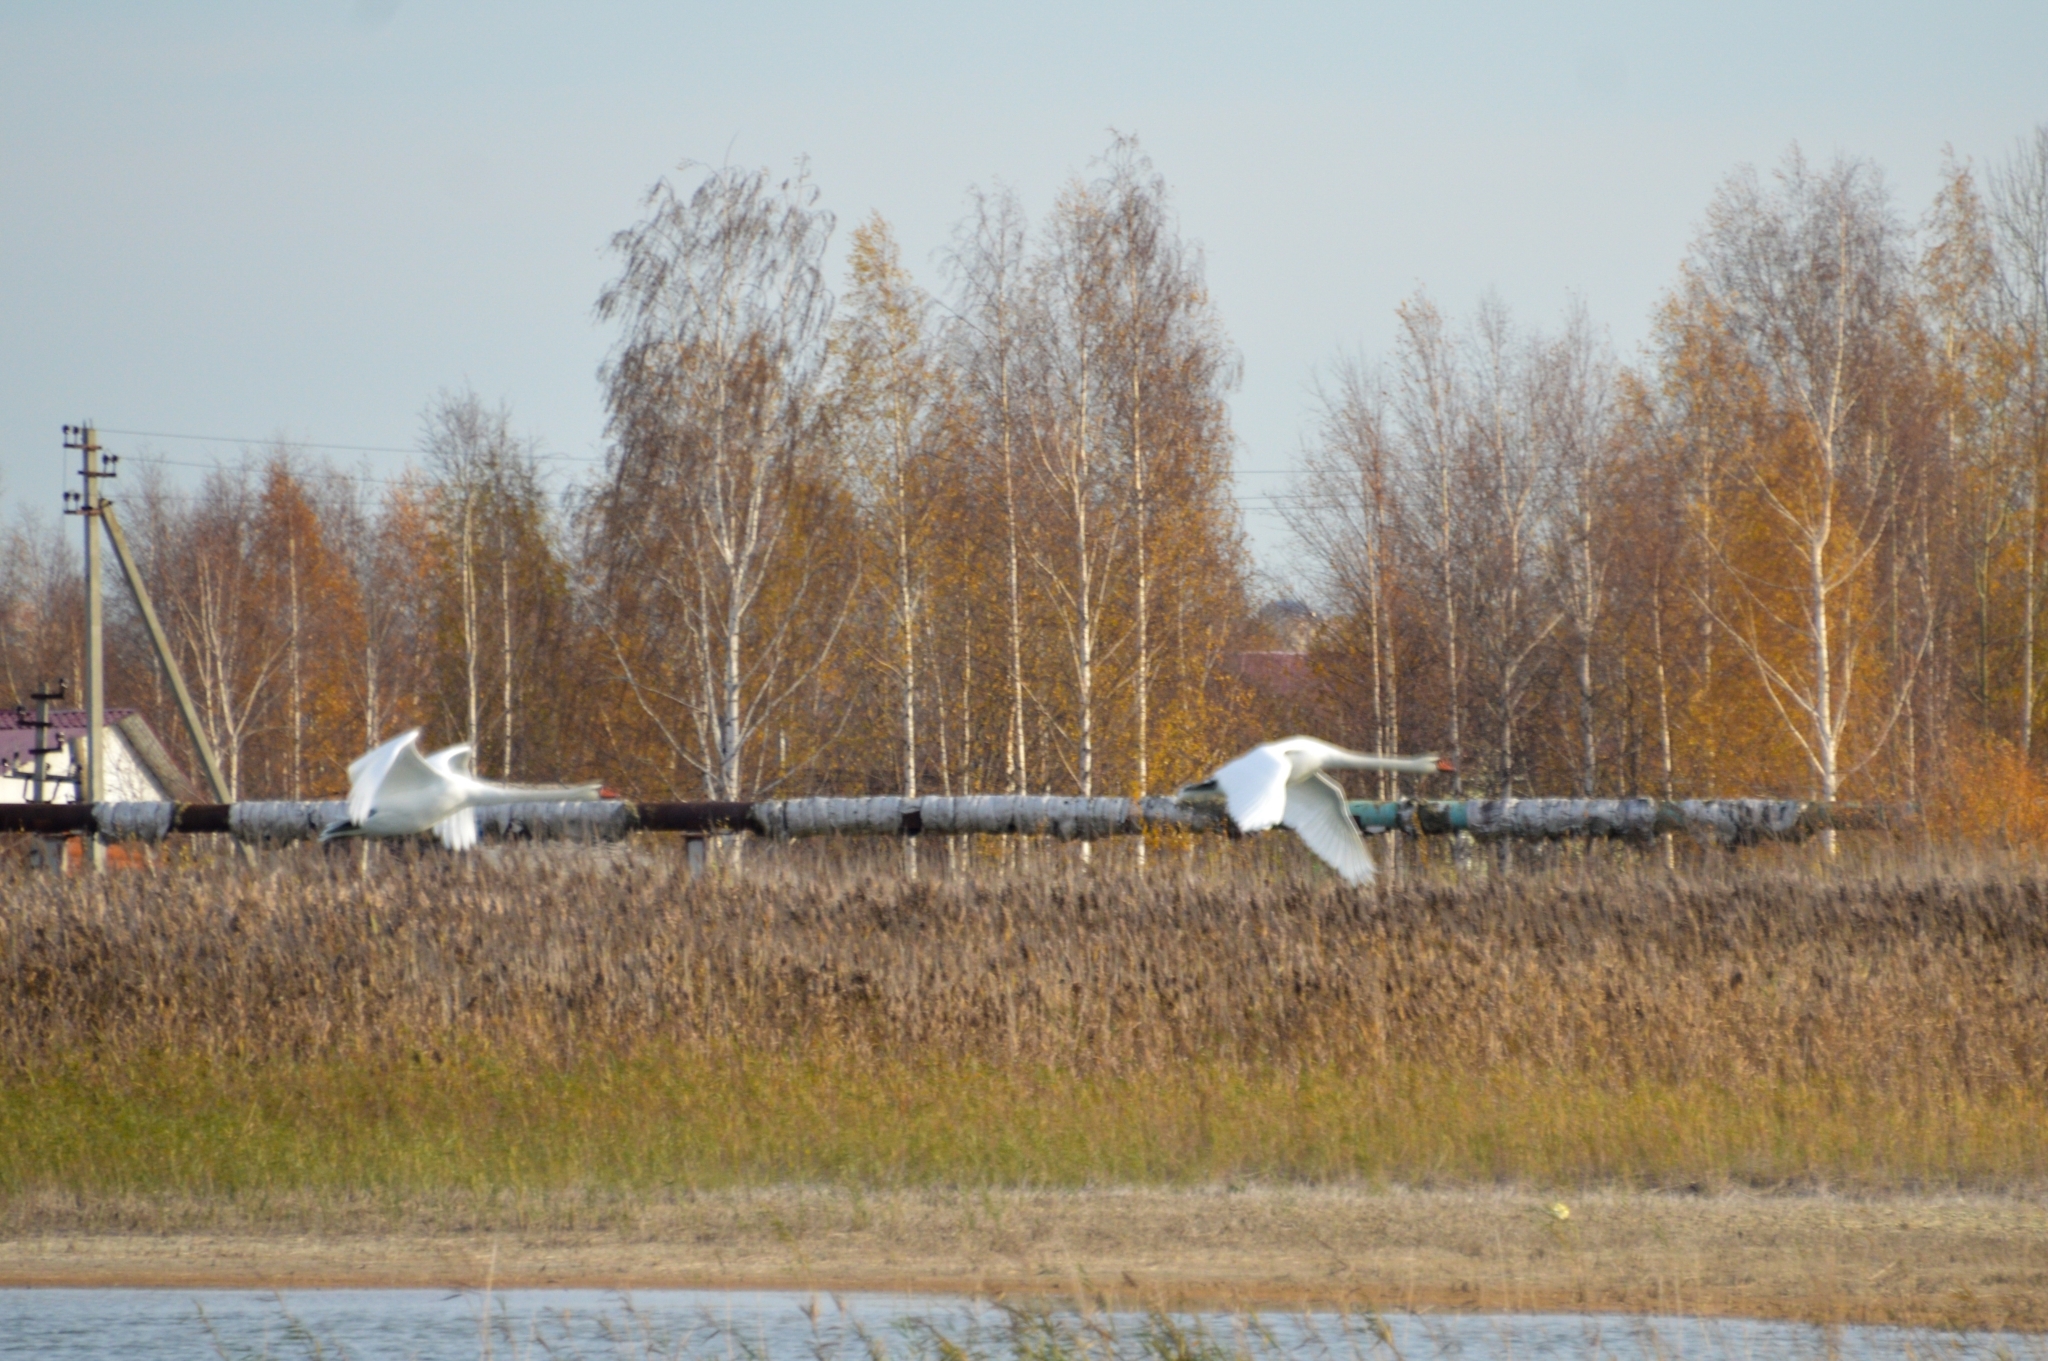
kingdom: Animalia
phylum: Chordata
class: Aves
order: Anseriformes
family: Anatidae
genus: Cygnus
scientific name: Cygnus olor
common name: Mute swan
